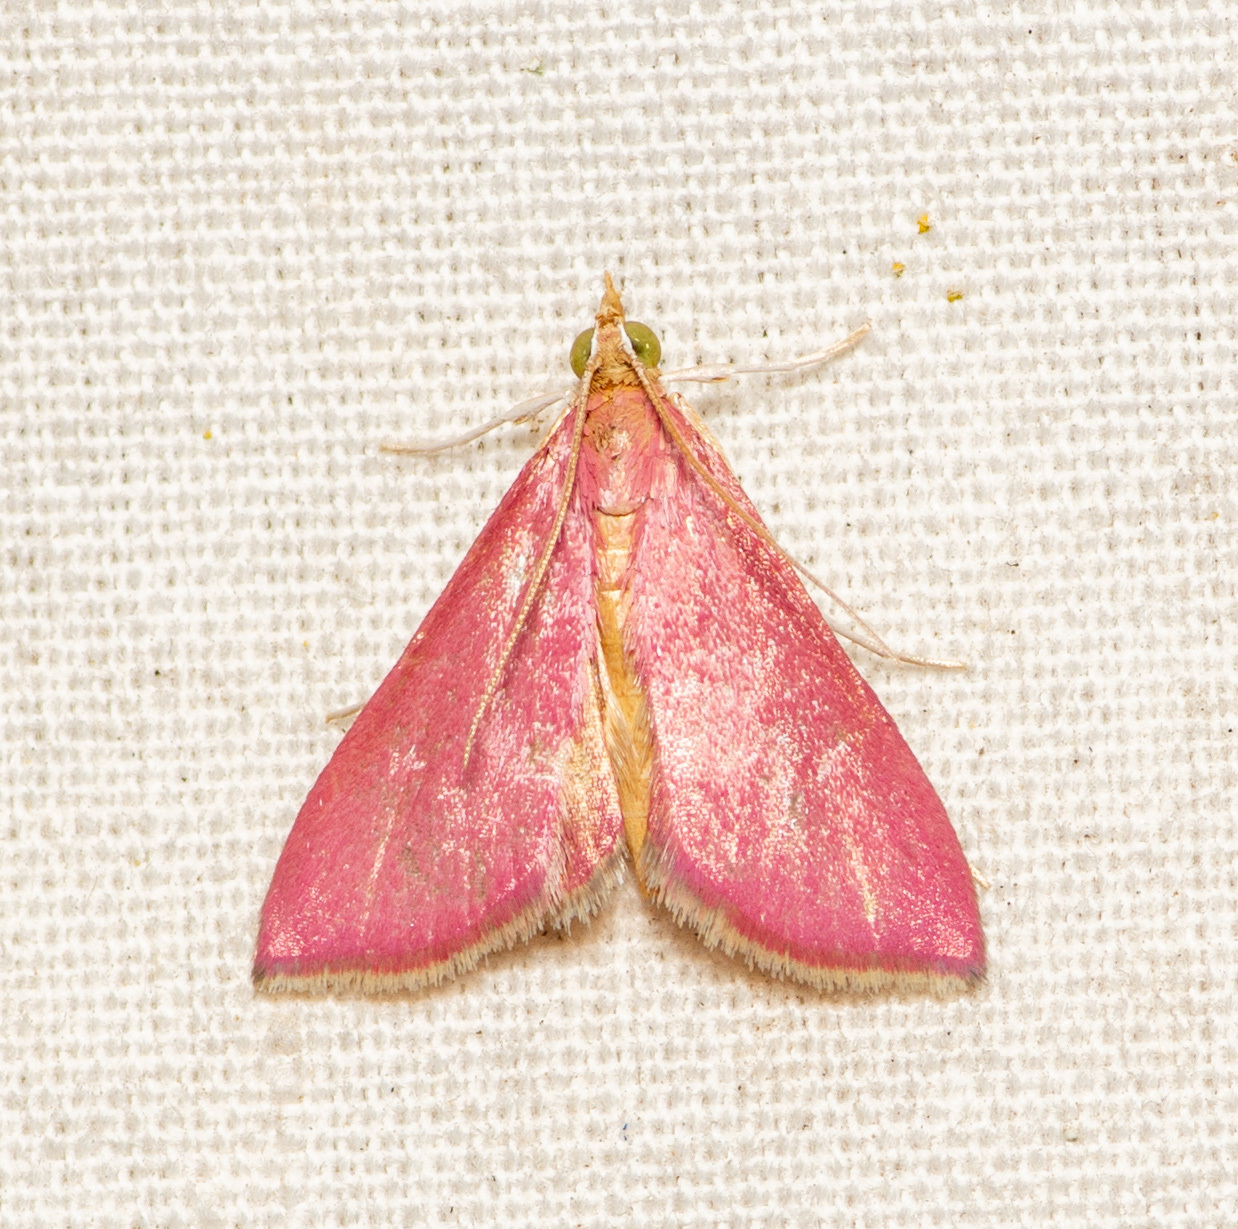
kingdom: Animalia
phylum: Arthropoda
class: Insecta
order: Lepidoptera
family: Crambidae
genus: Pyrausta
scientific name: Pyrausta inornatalis
